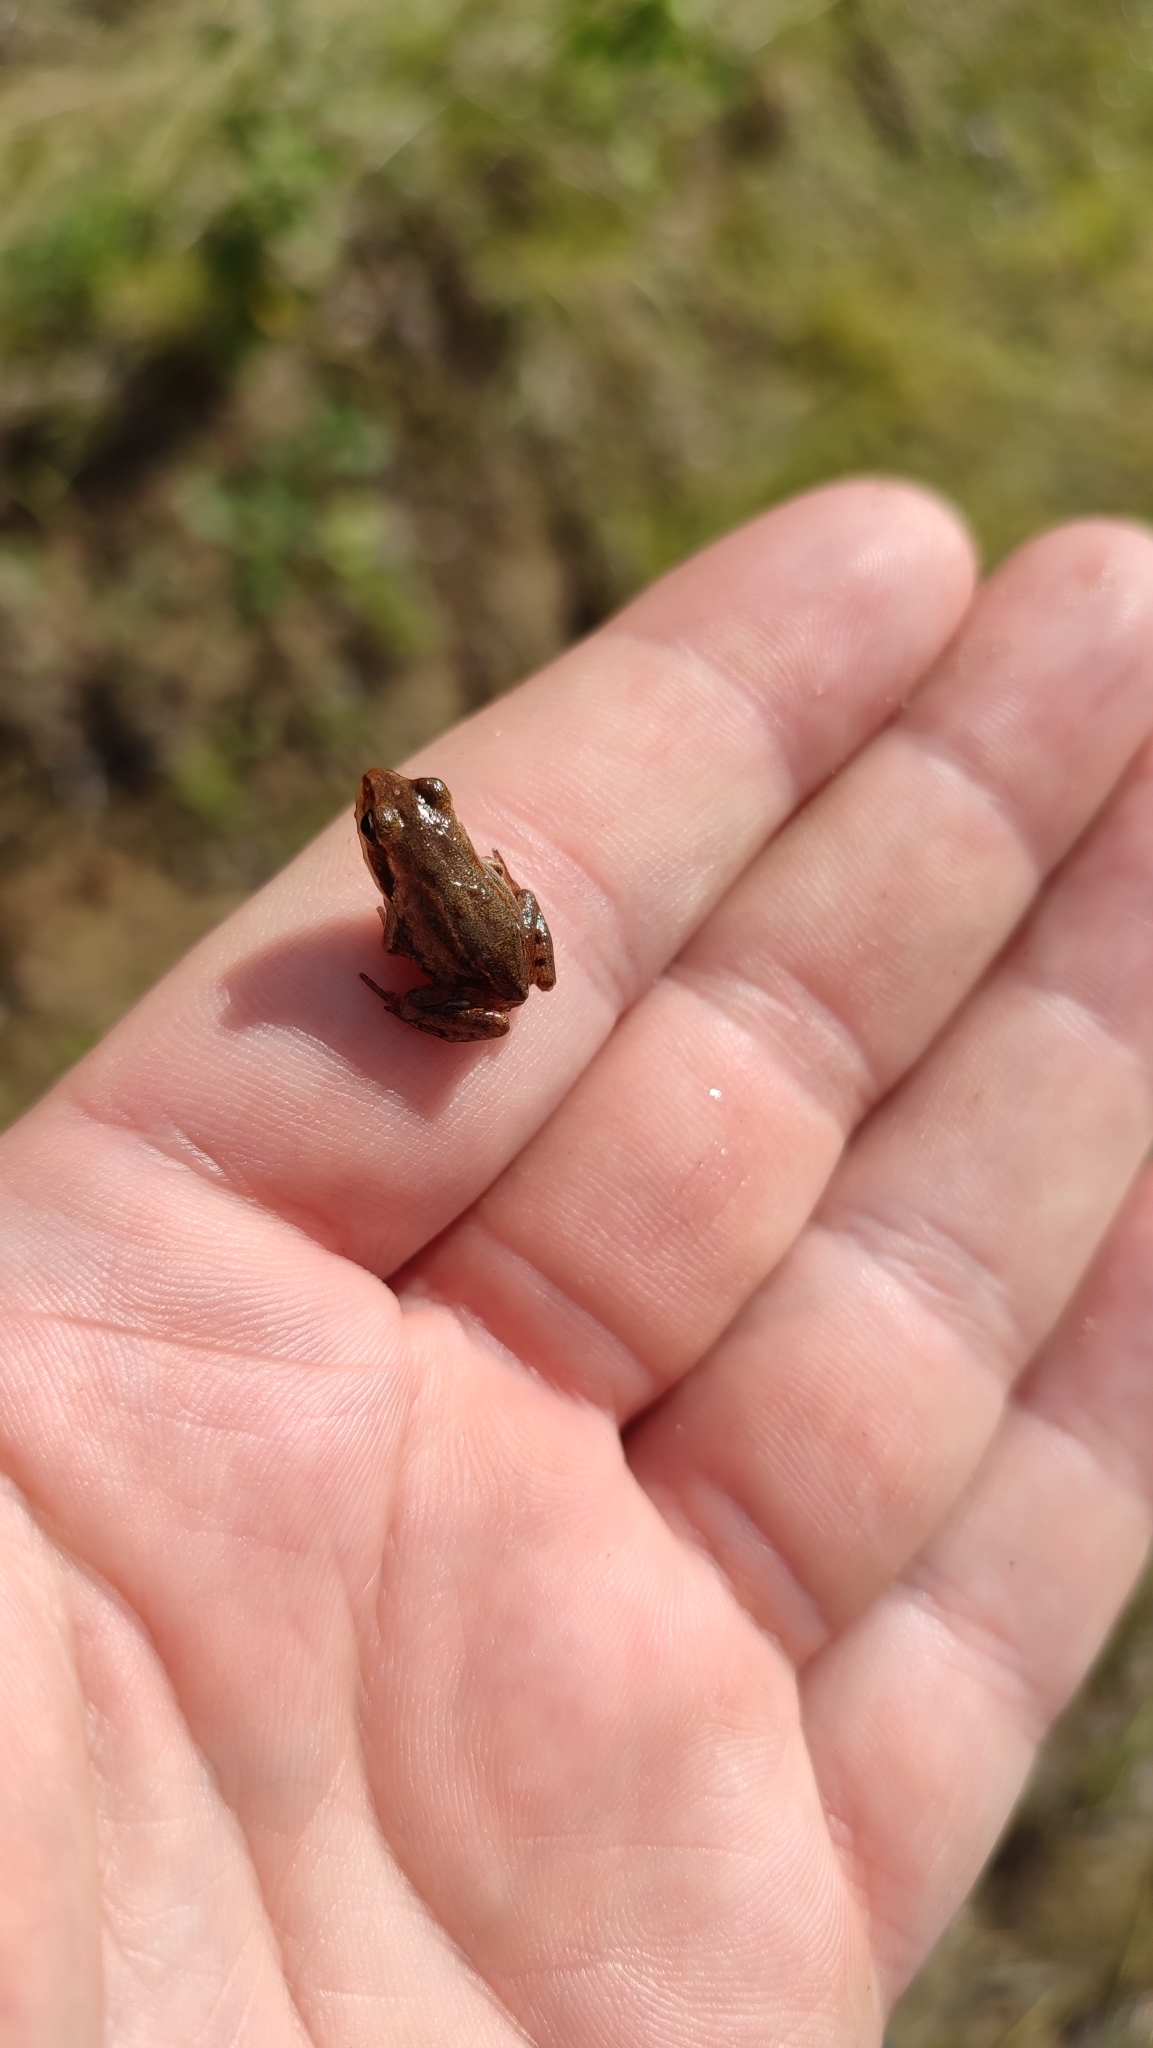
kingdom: Animalia
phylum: Chordata
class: Amphibia
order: Anura
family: Ranidae
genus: Rana
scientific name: Rana arvalis
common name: Moor frog
